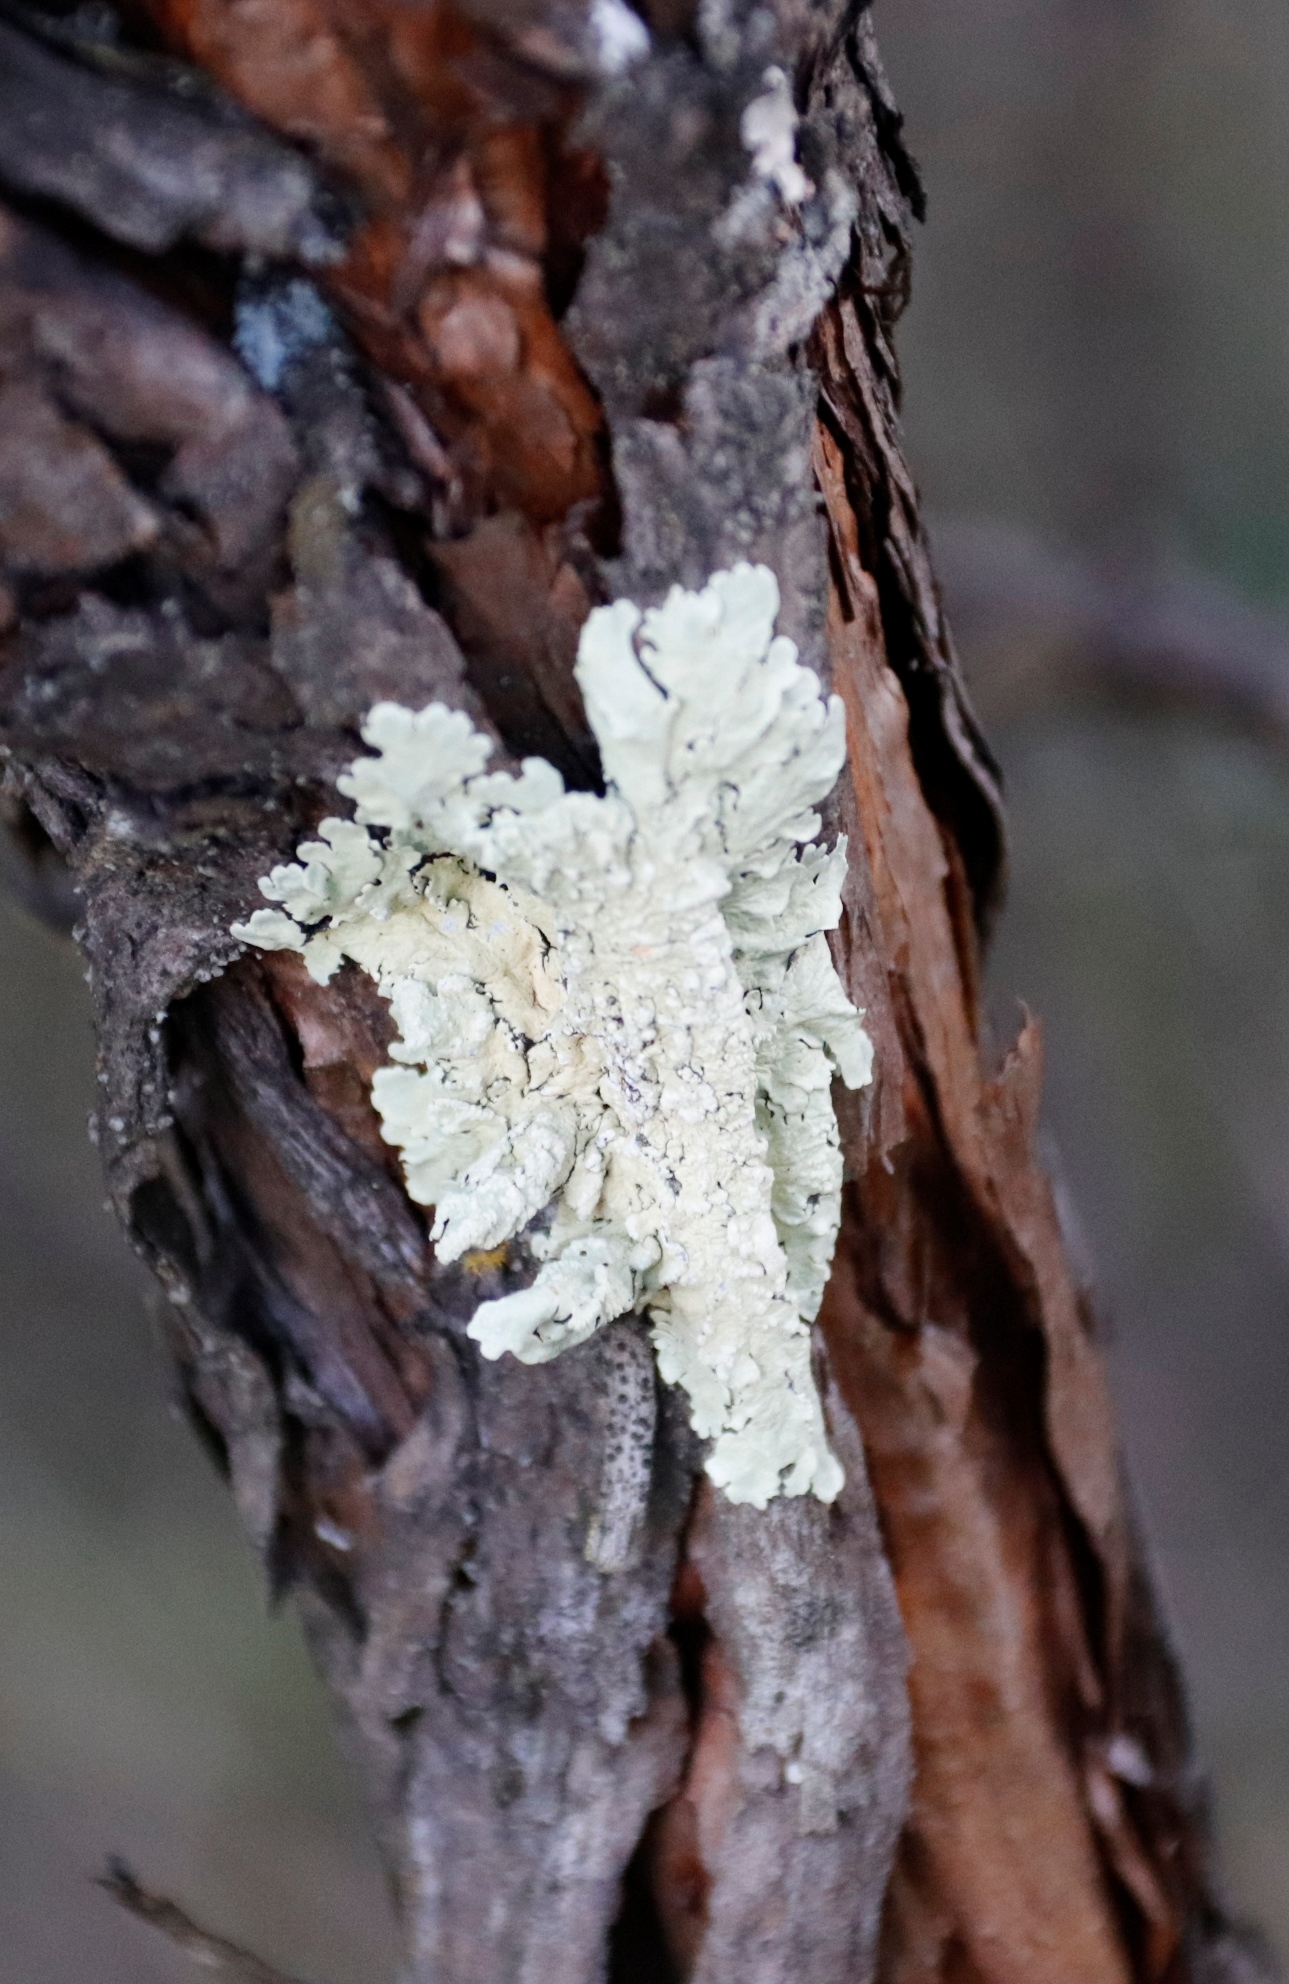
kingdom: Fungi
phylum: Ascomycota
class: Lecanoromycetes
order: Lecanorales
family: Parmeliaceae
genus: Flavoparmelia
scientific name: Flavoparmelia caperata
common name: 40-mile per hour lichen
